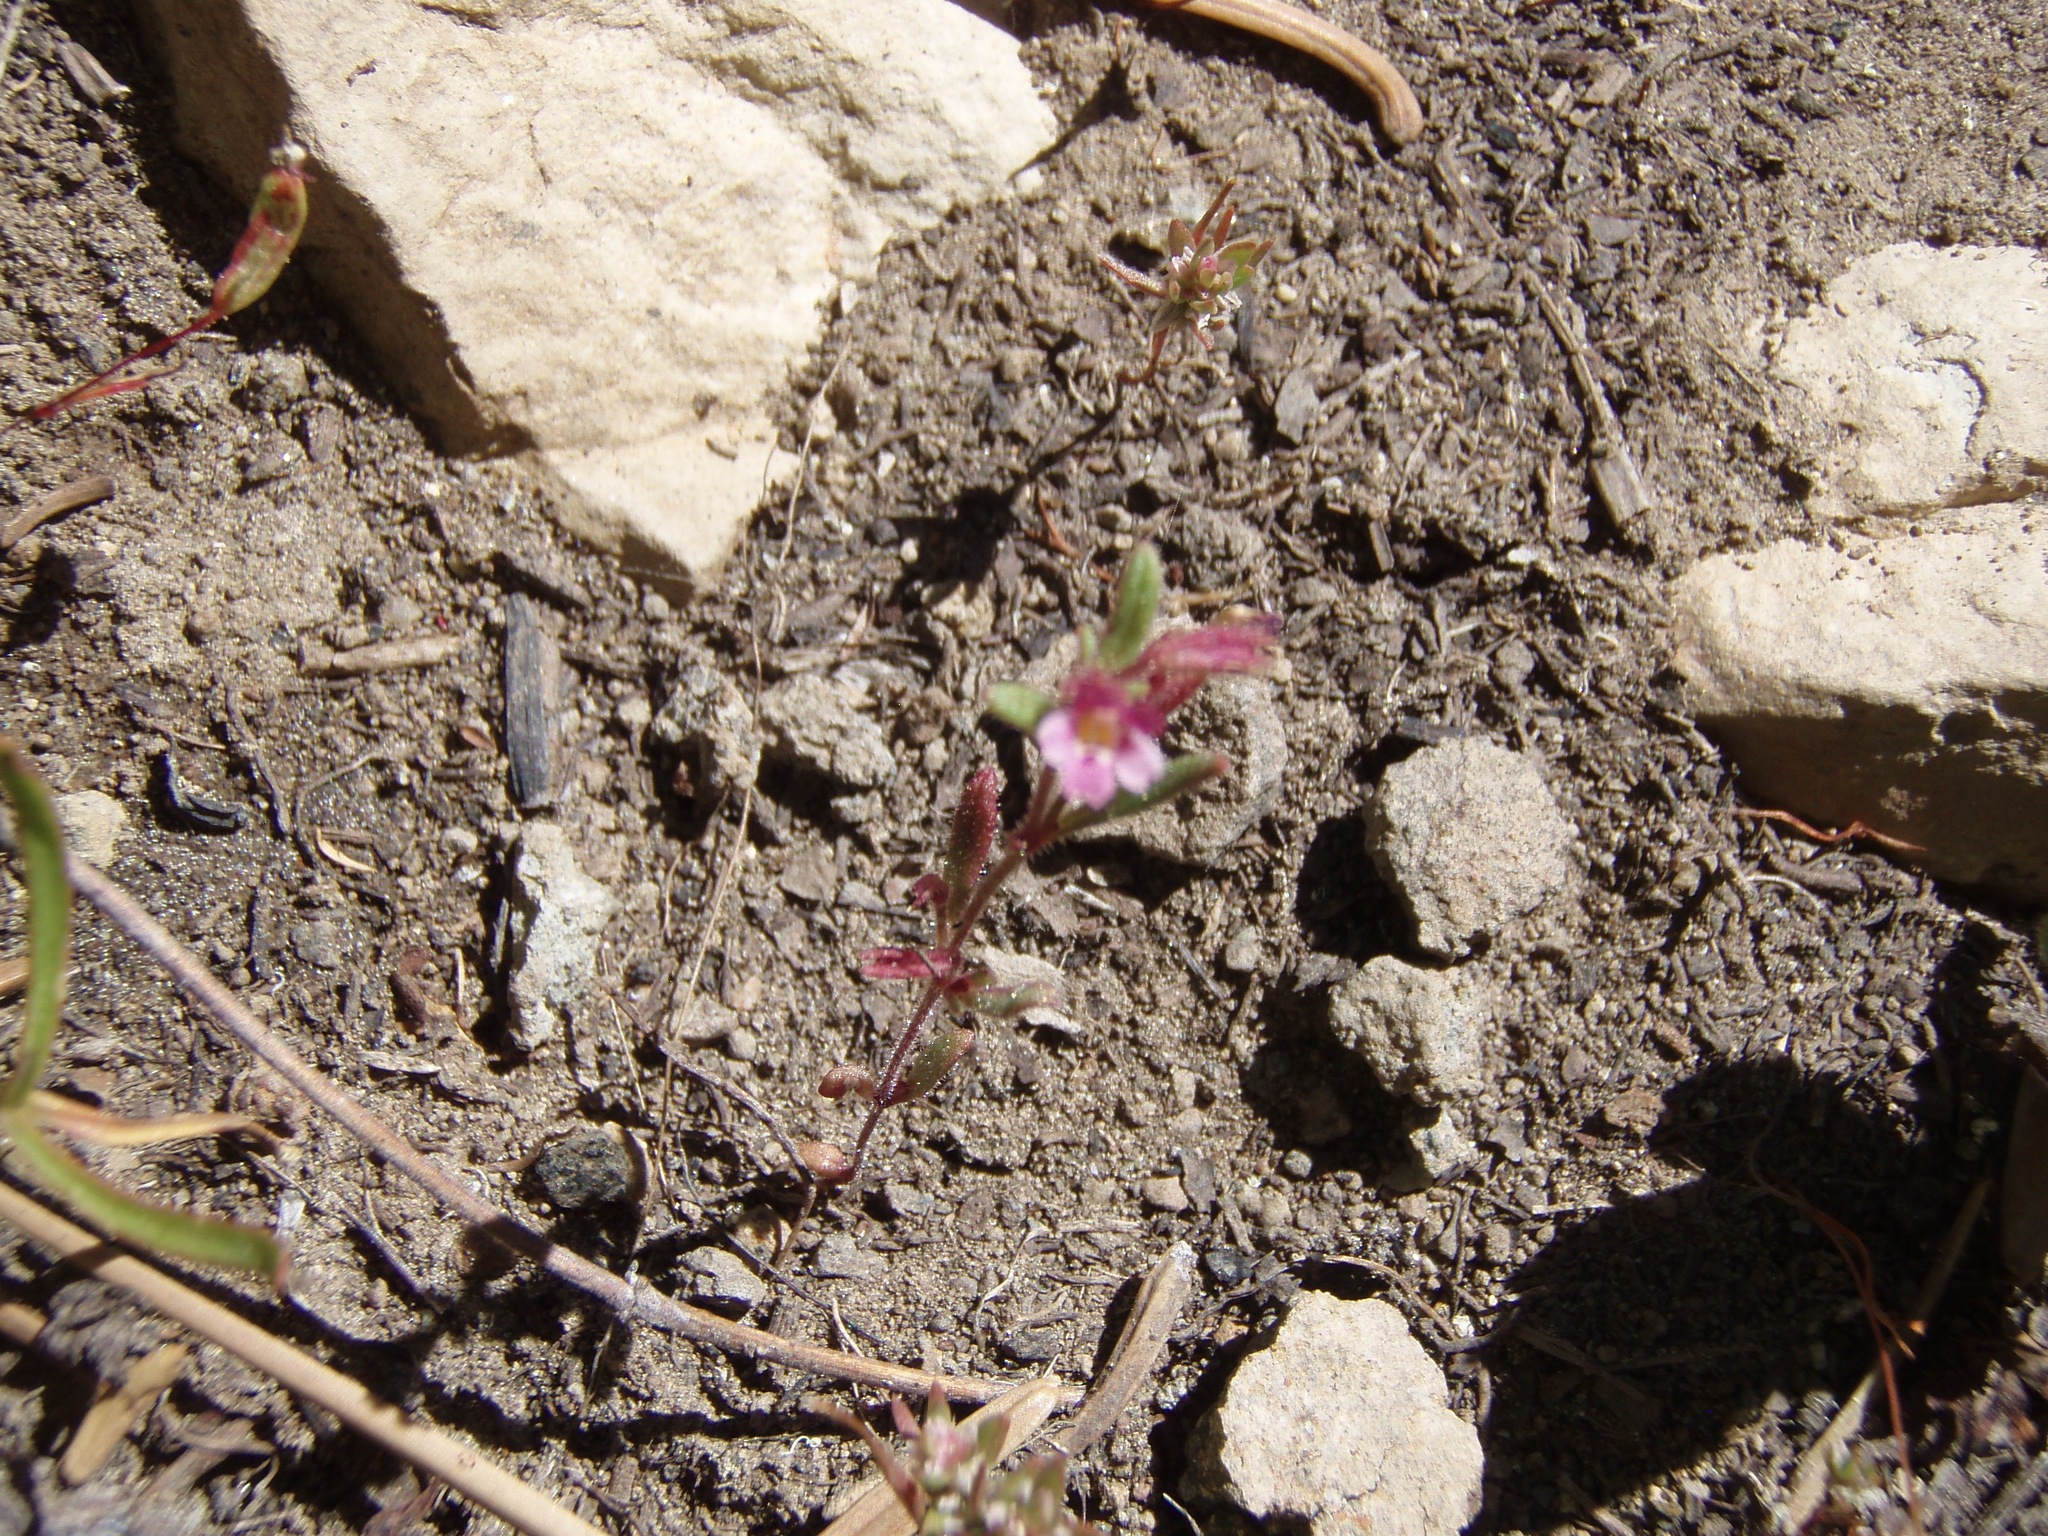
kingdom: Plantae
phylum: Tracheophyta
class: Magnoliopsida
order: Lamiales
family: Phrymaceae
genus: Erythranthe
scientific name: Erythranthe breweri
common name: Brewer's monkeyflower
